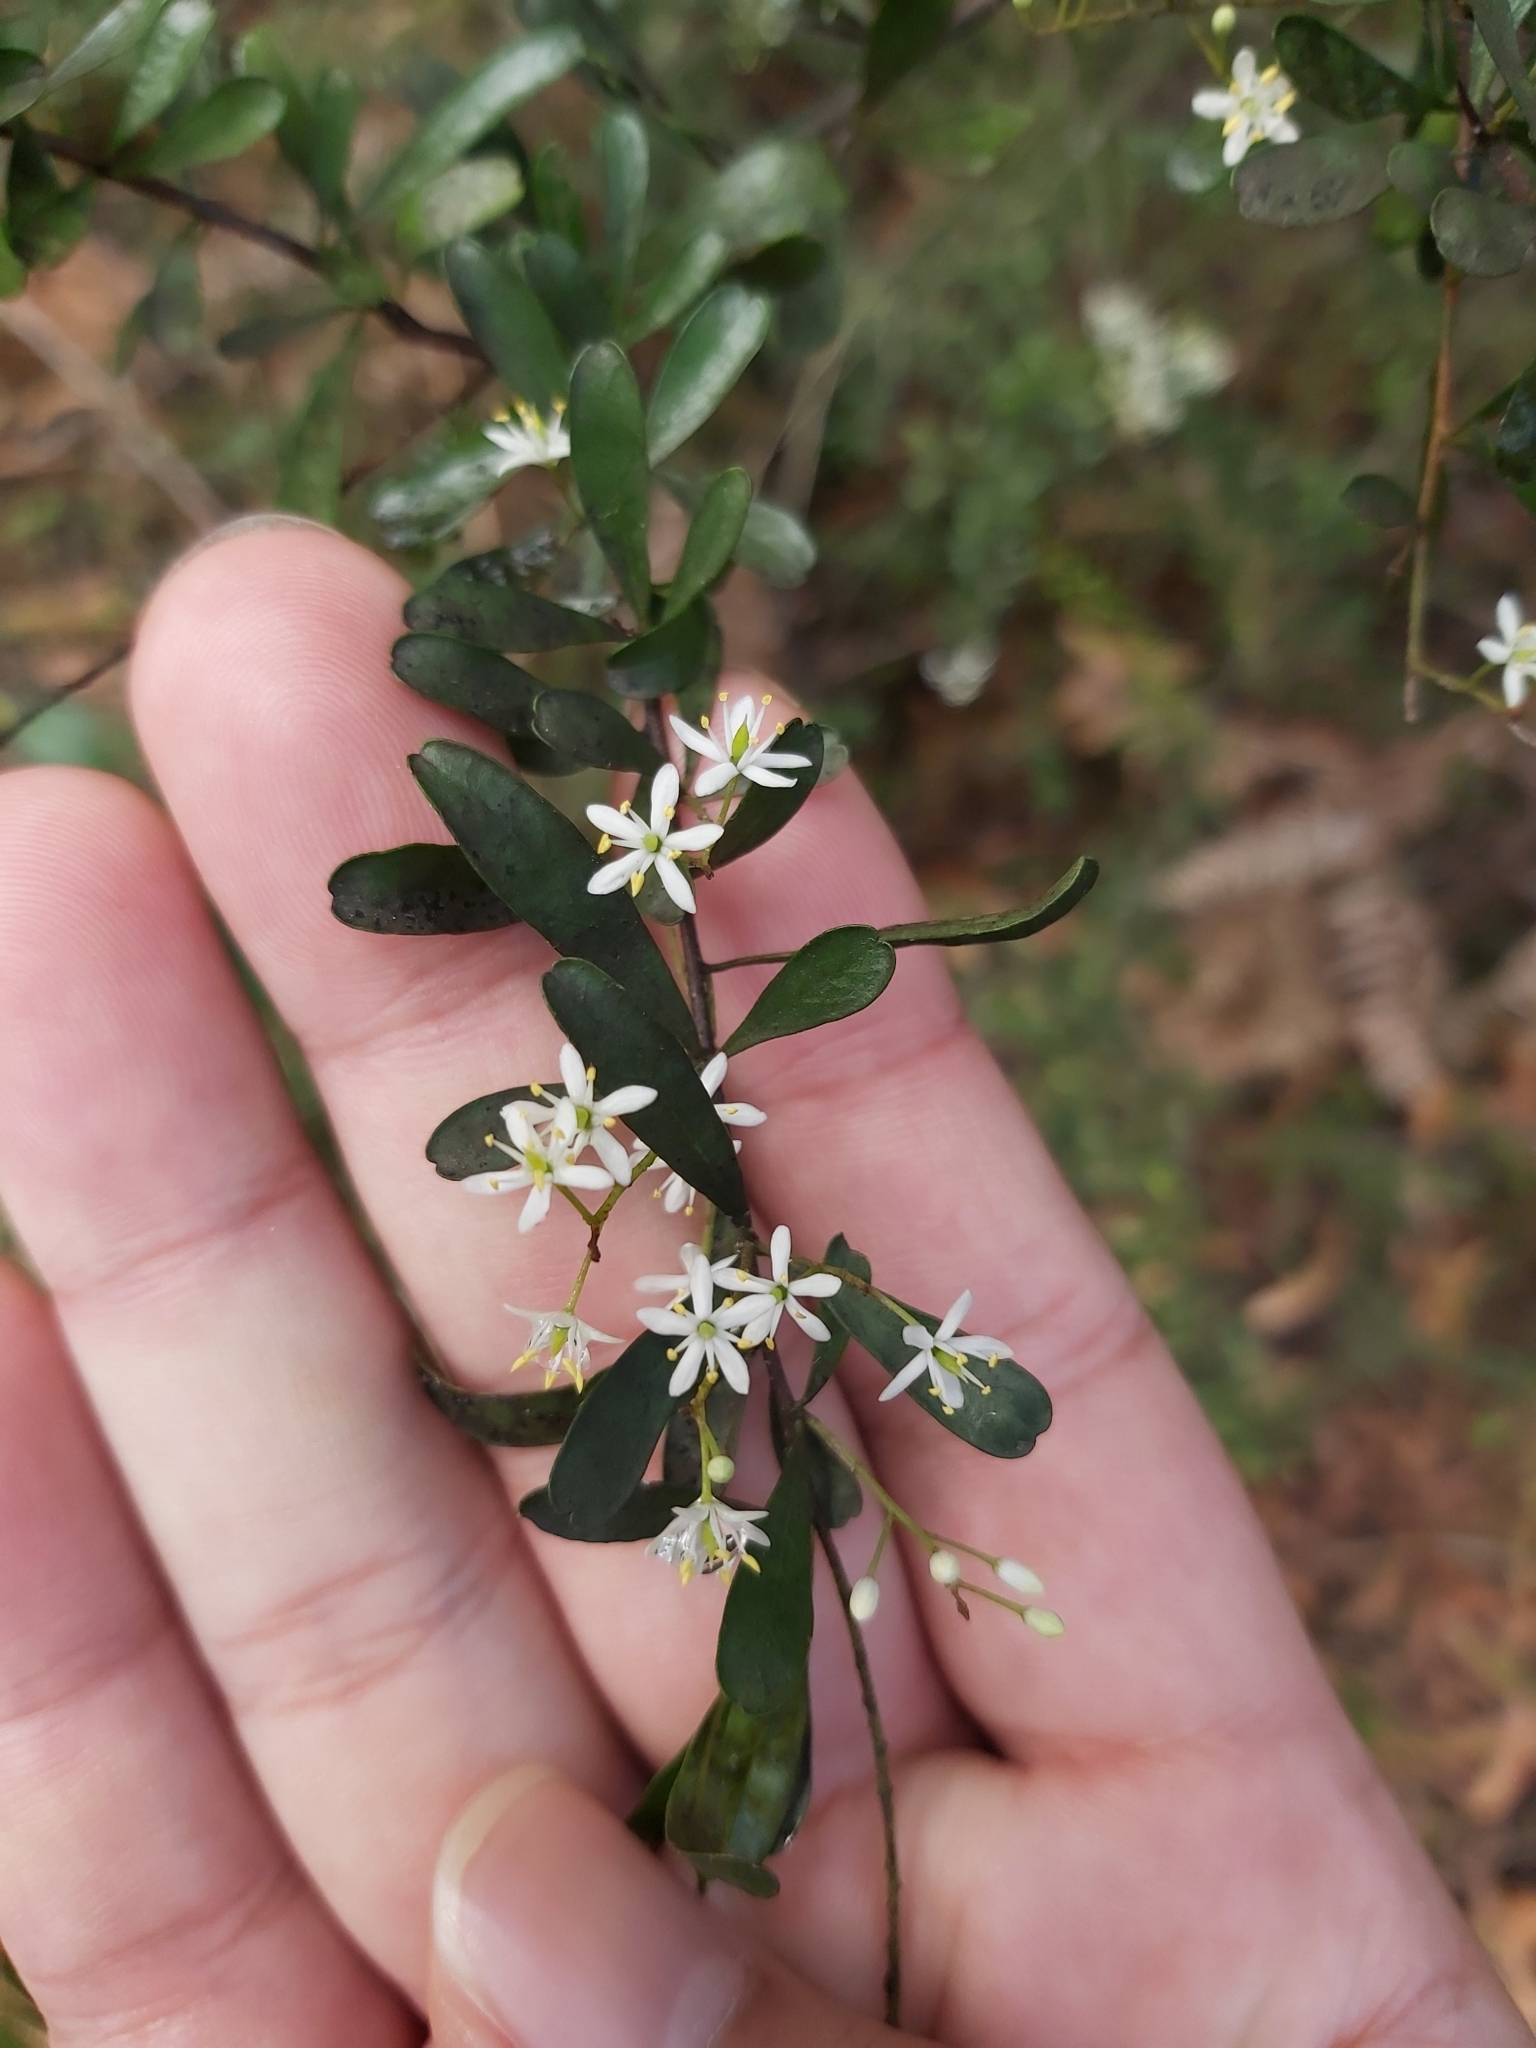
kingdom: Plantae
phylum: Tracheophyta
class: Magnoliopsida
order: Apiales
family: Pittosporaceae
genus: Bursaria
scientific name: Bursaria spinosa
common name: Australian blackthorn
